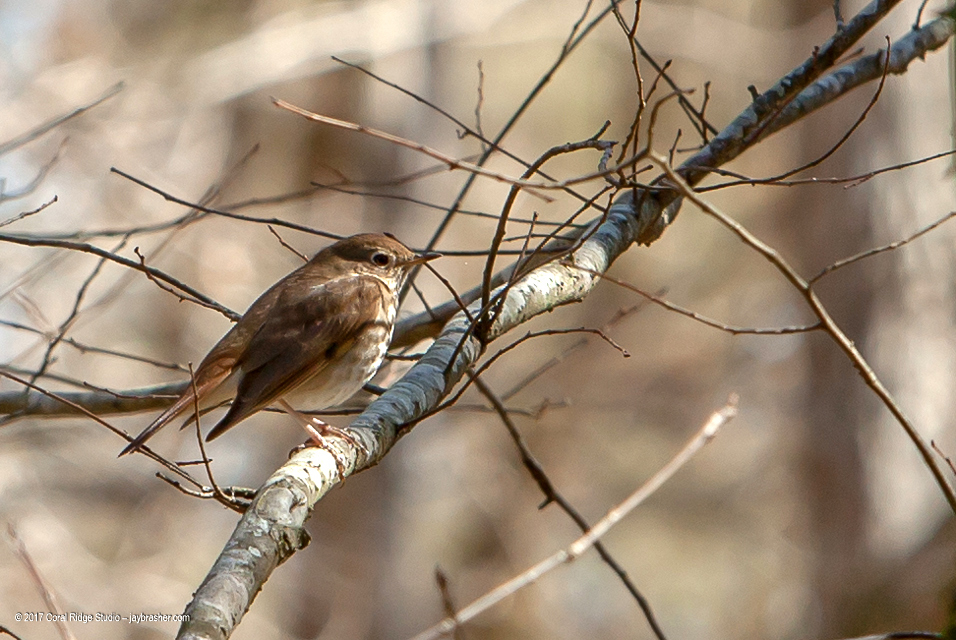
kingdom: Animalia
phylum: Chordata
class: Aves
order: Passeriformes
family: Turdidae
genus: Catharus
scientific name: Catharus guttatus
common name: Hermit thrush
